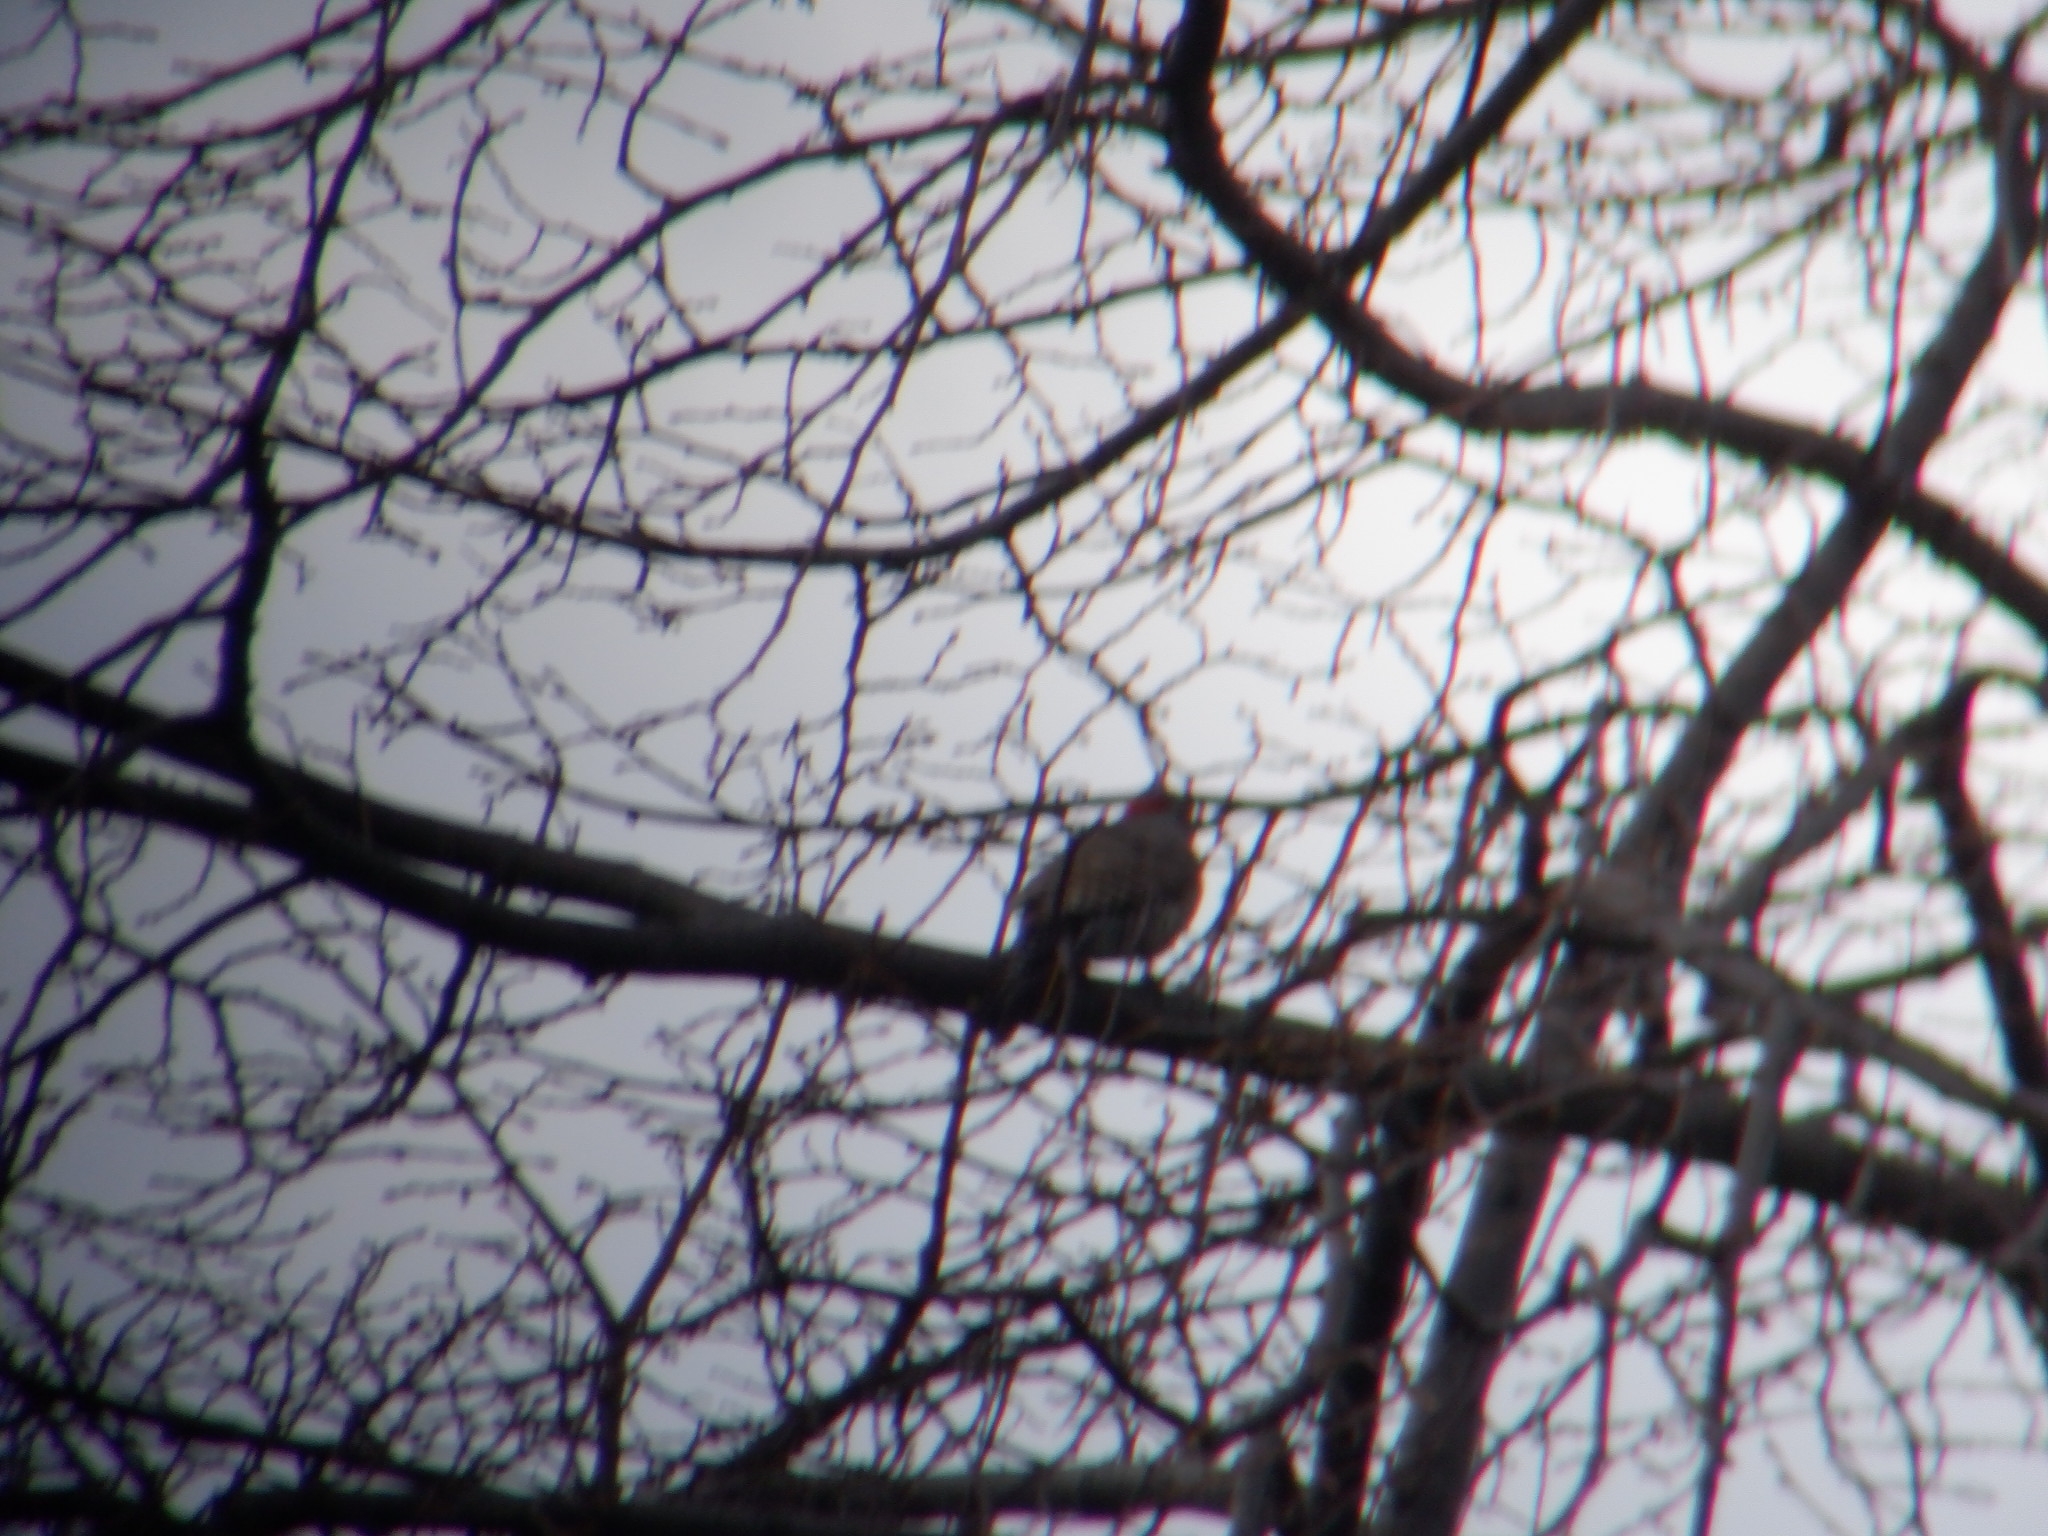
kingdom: Animalia
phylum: Chordata
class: Aves
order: Piciformes
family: Picidae
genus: Colaptes
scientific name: Colaptes auratus
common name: Northern flicker
